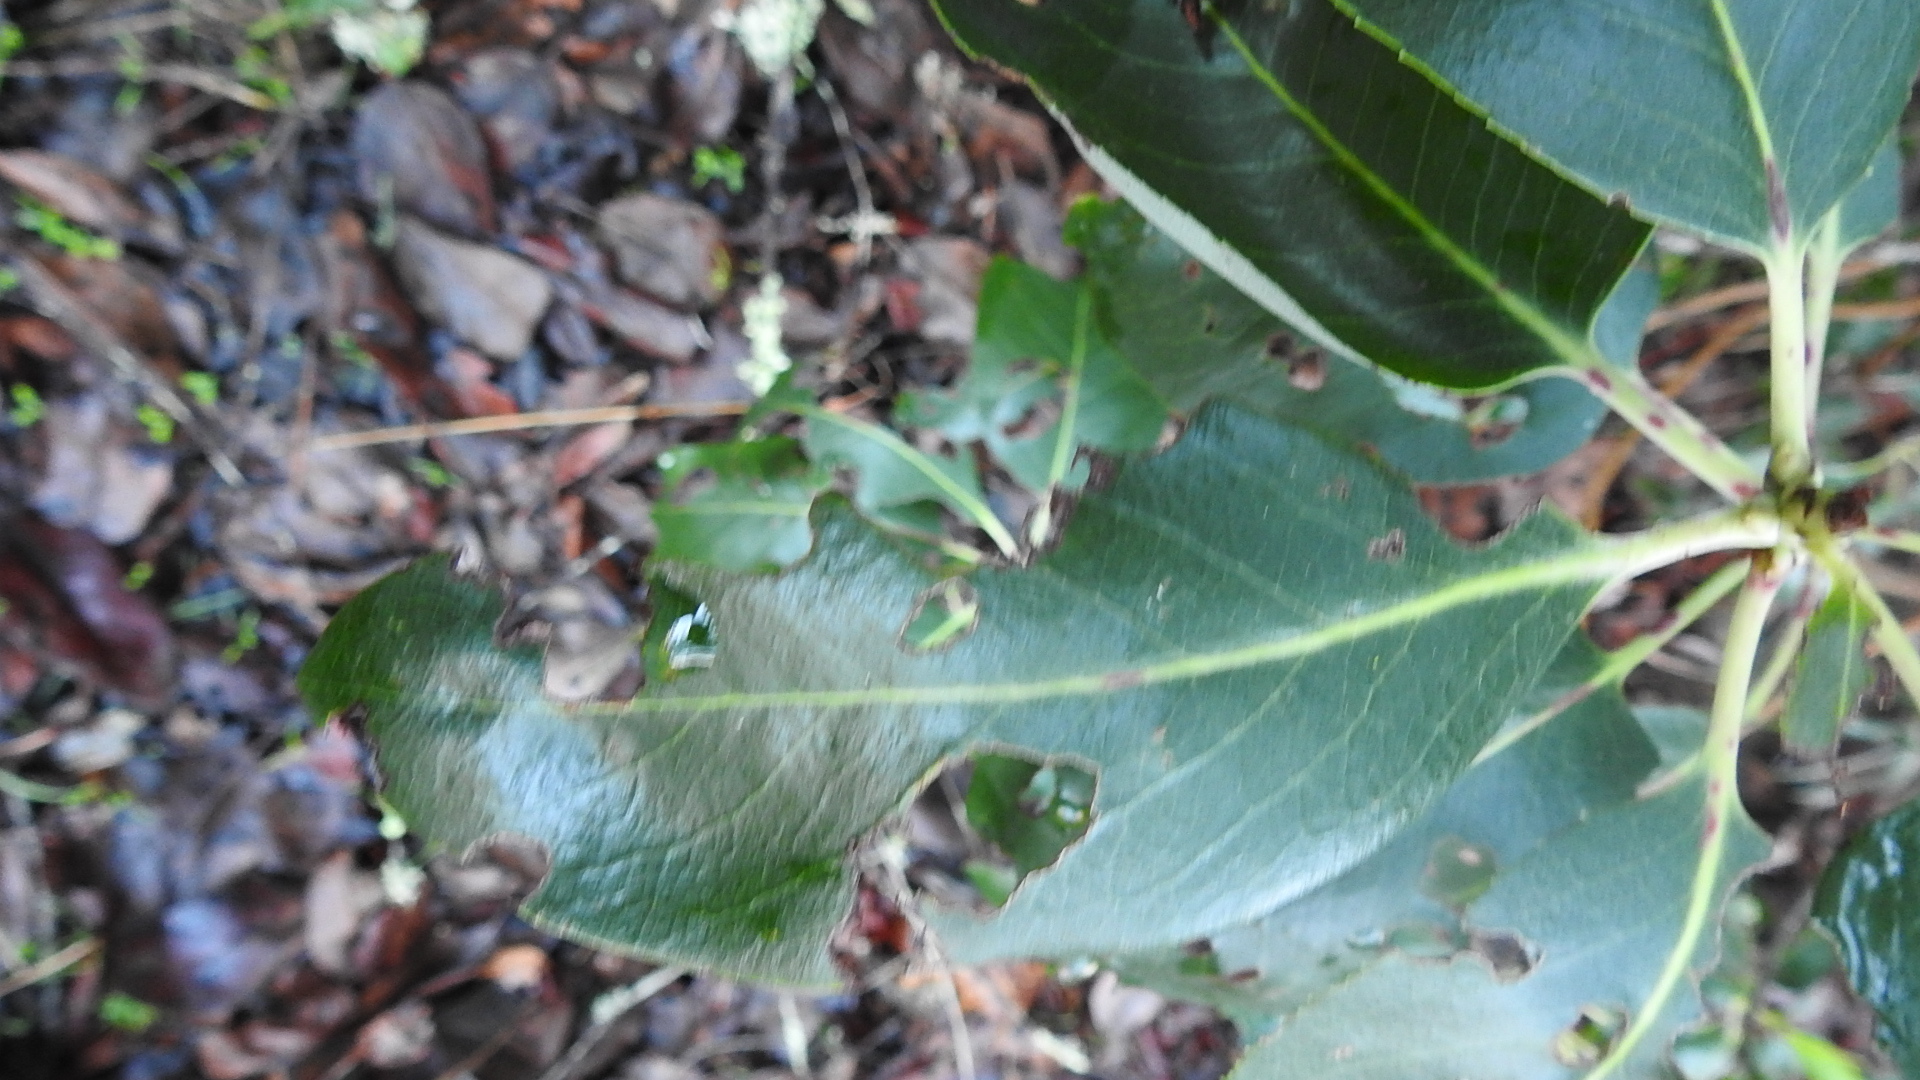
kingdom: Plantae
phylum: Tracheophyta
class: Magnoliopsida
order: Ericales
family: Ericaceae
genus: Arbutus
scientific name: Arbutus menziesii
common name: Pacific madrone
